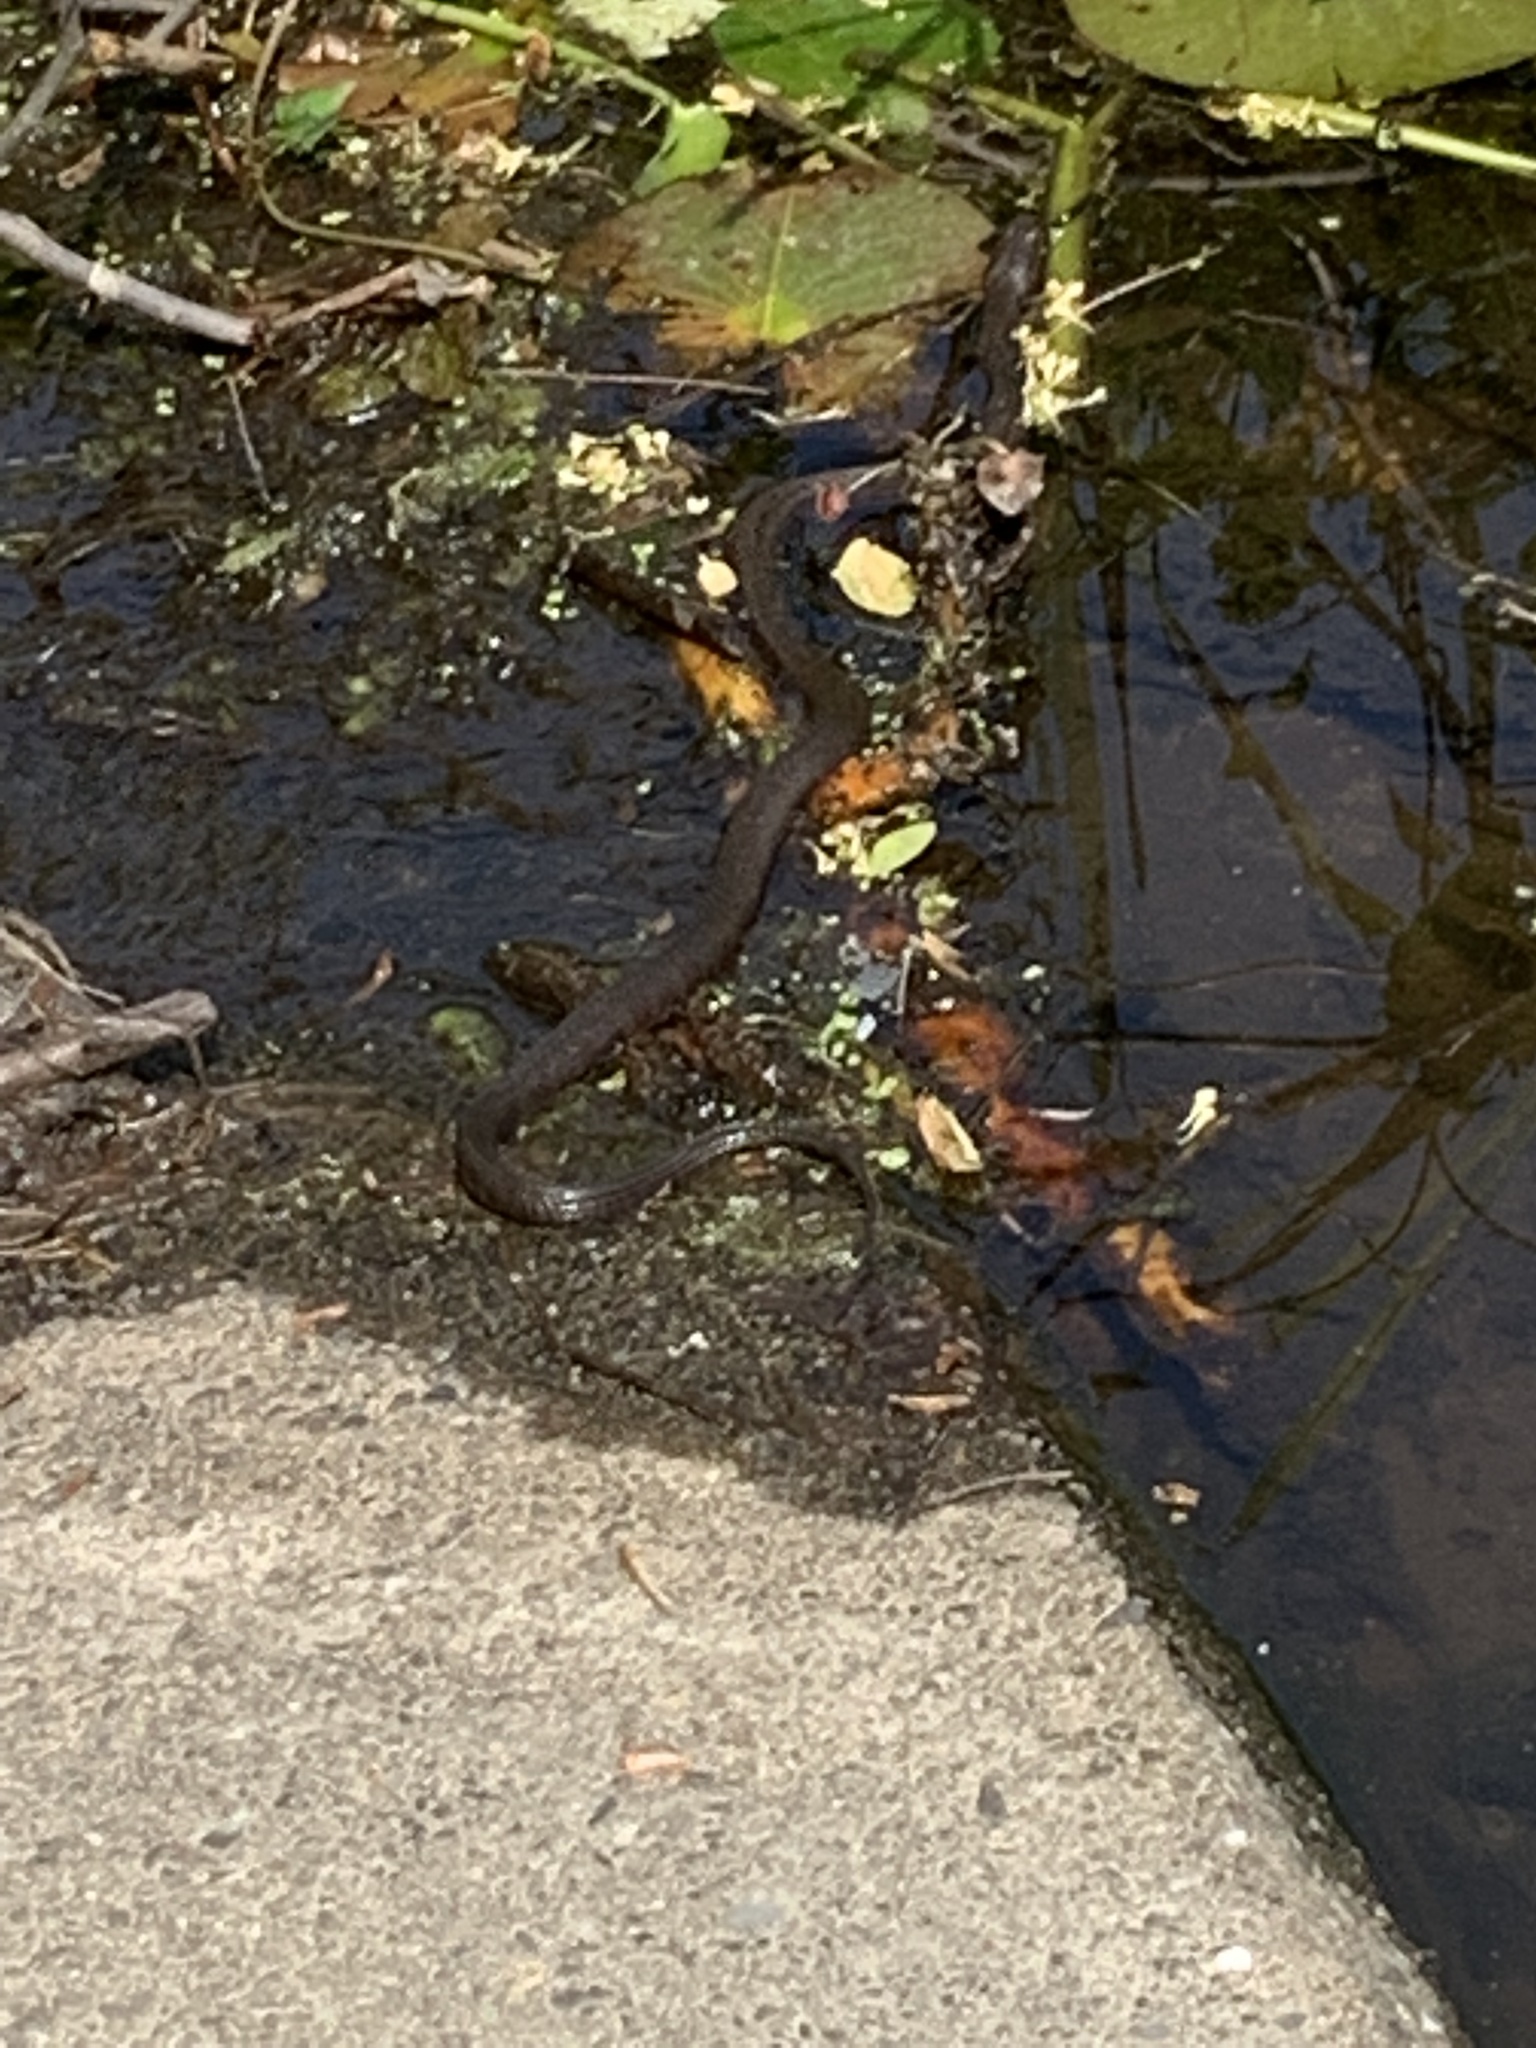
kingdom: Animalia
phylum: Chordata
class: Squamata
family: Colubridae
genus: Nerodia
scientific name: Nerodia sipedon
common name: Northern water snake
